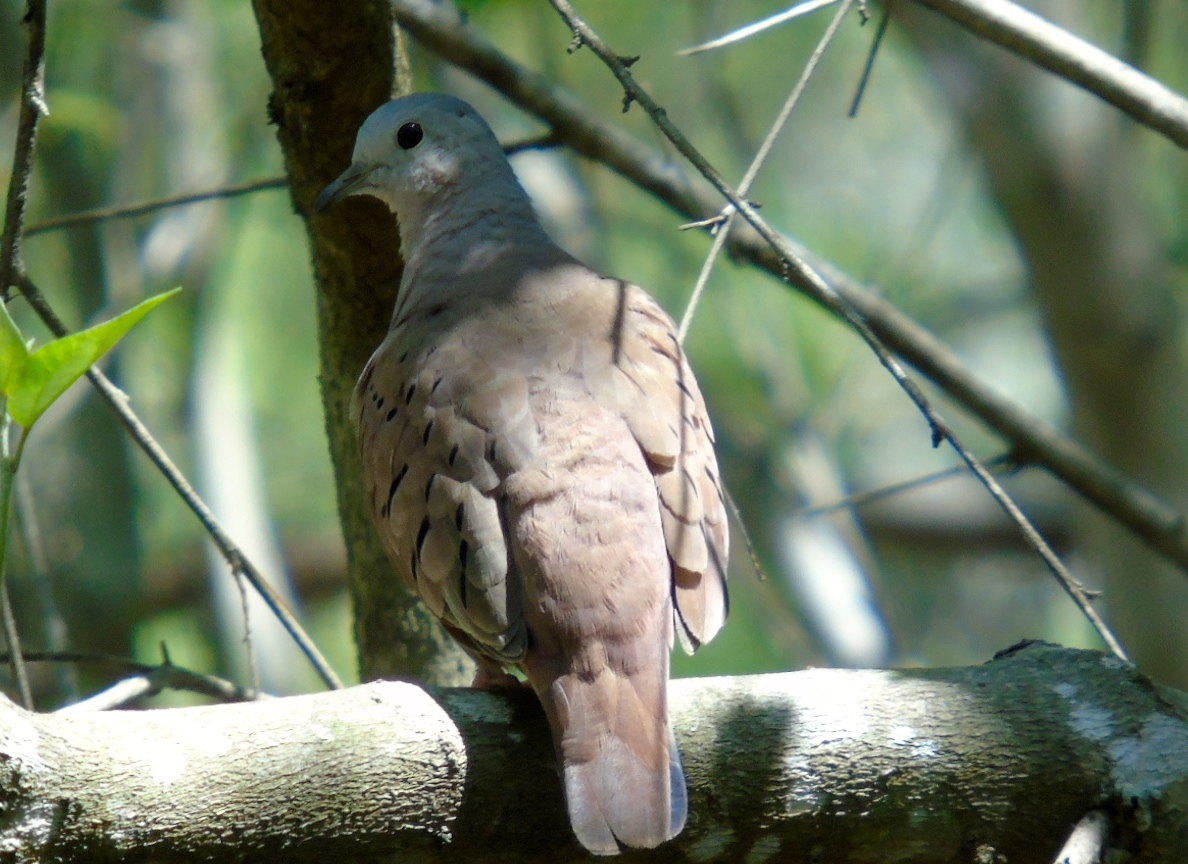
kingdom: Animalia
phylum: Chordata
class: Aves
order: Columbiformes
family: Columbidae
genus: Columbina
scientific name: Columbina talpacoti
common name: Ruddy ground dove
